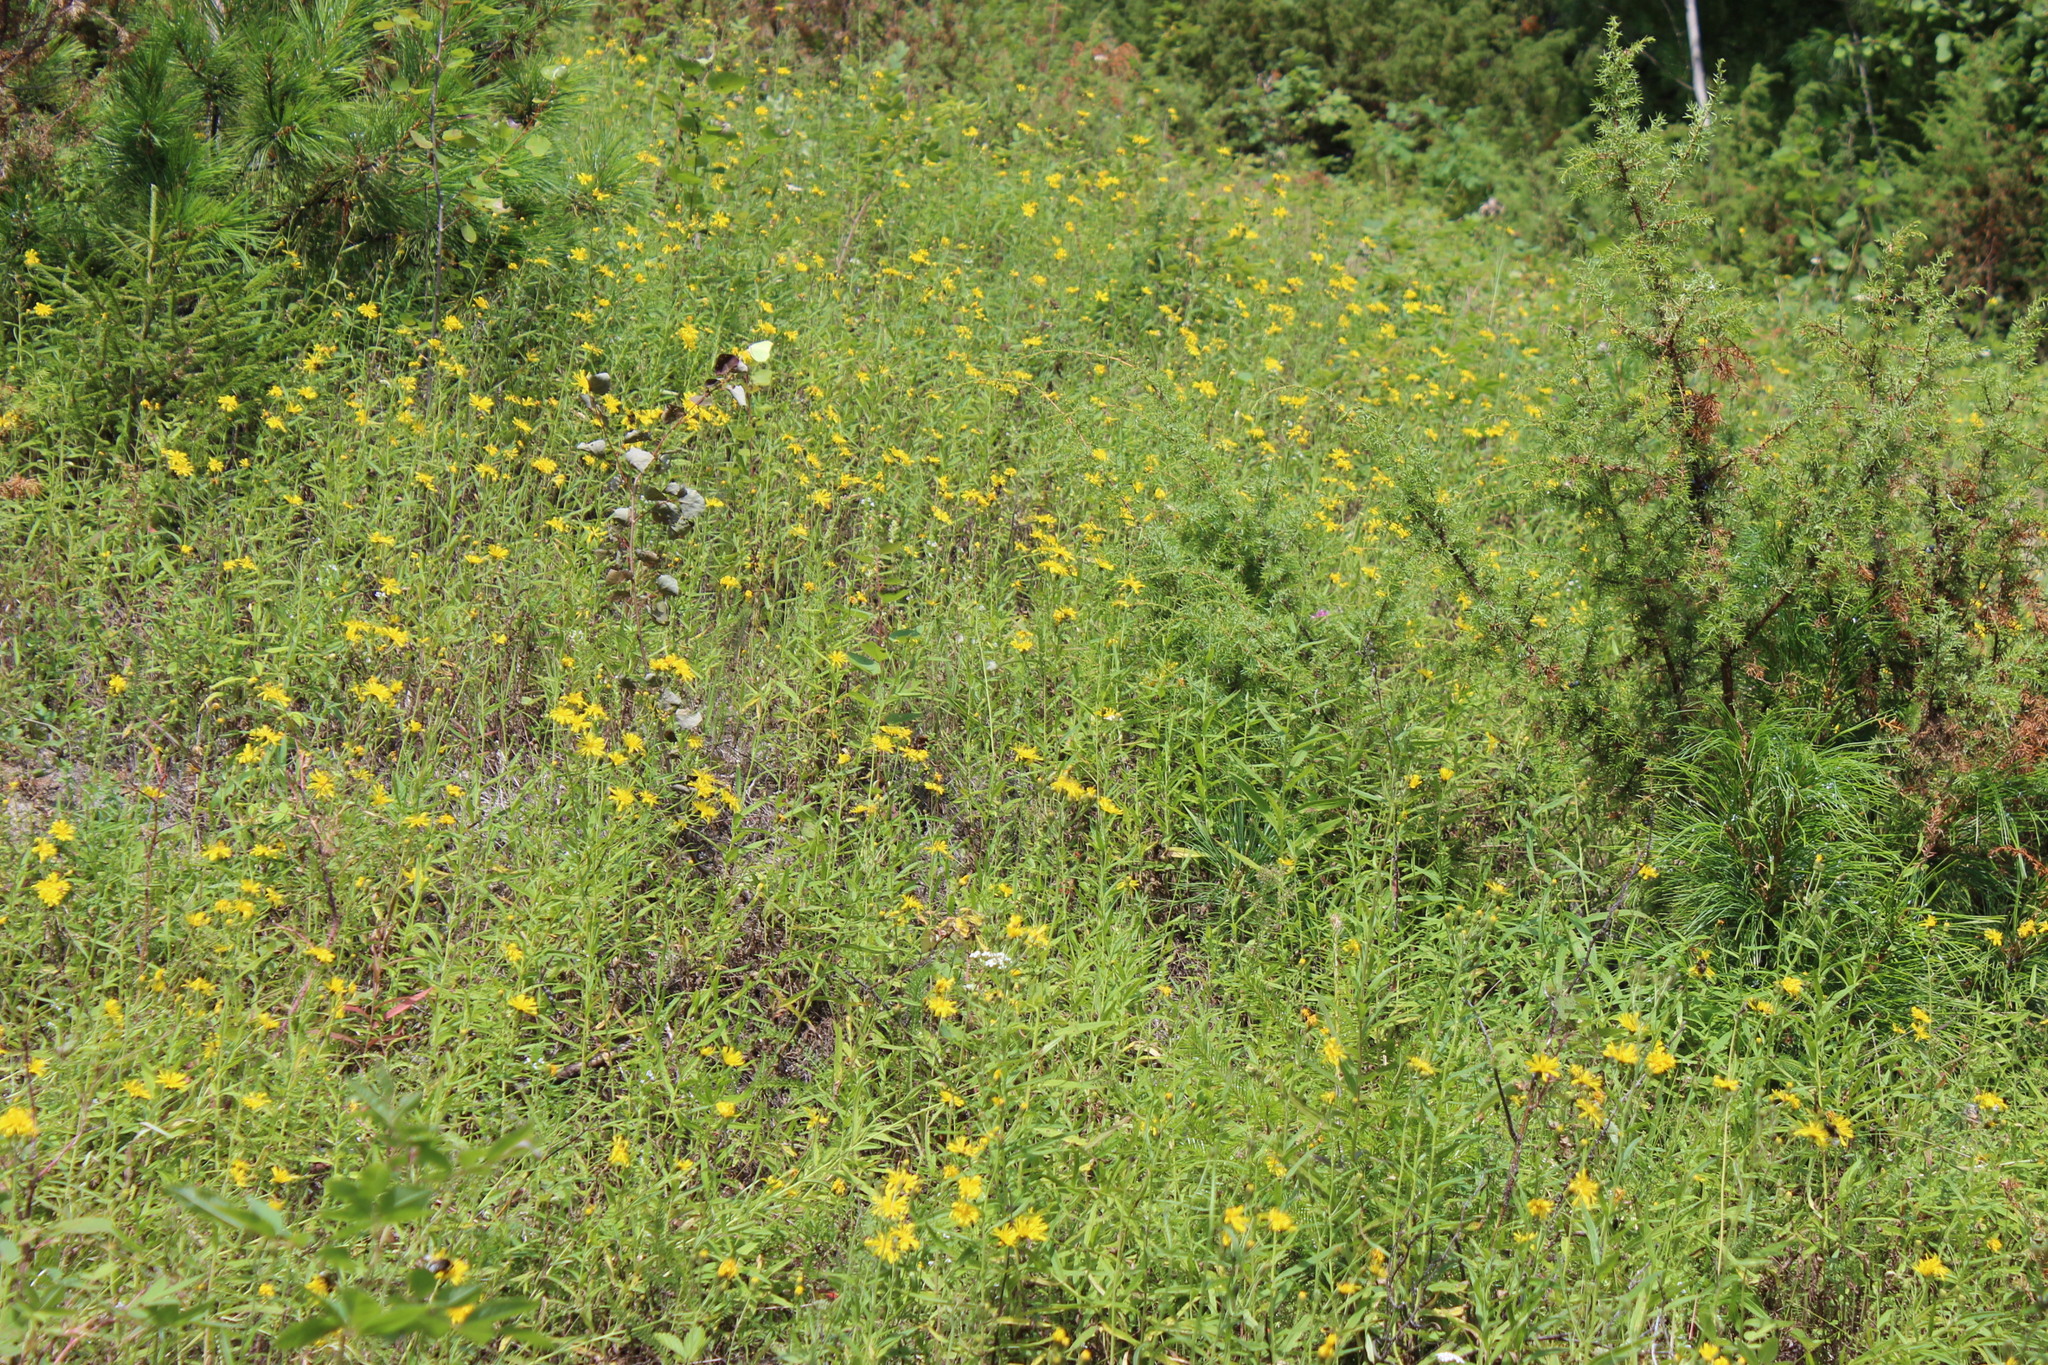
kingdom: Plantae
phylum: Tracheophyta
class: Magnoliopsida
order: Asterales
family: Asteraceae
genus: Hieracium
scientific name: Hieracium umbellatum
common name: Northern hawkweed
